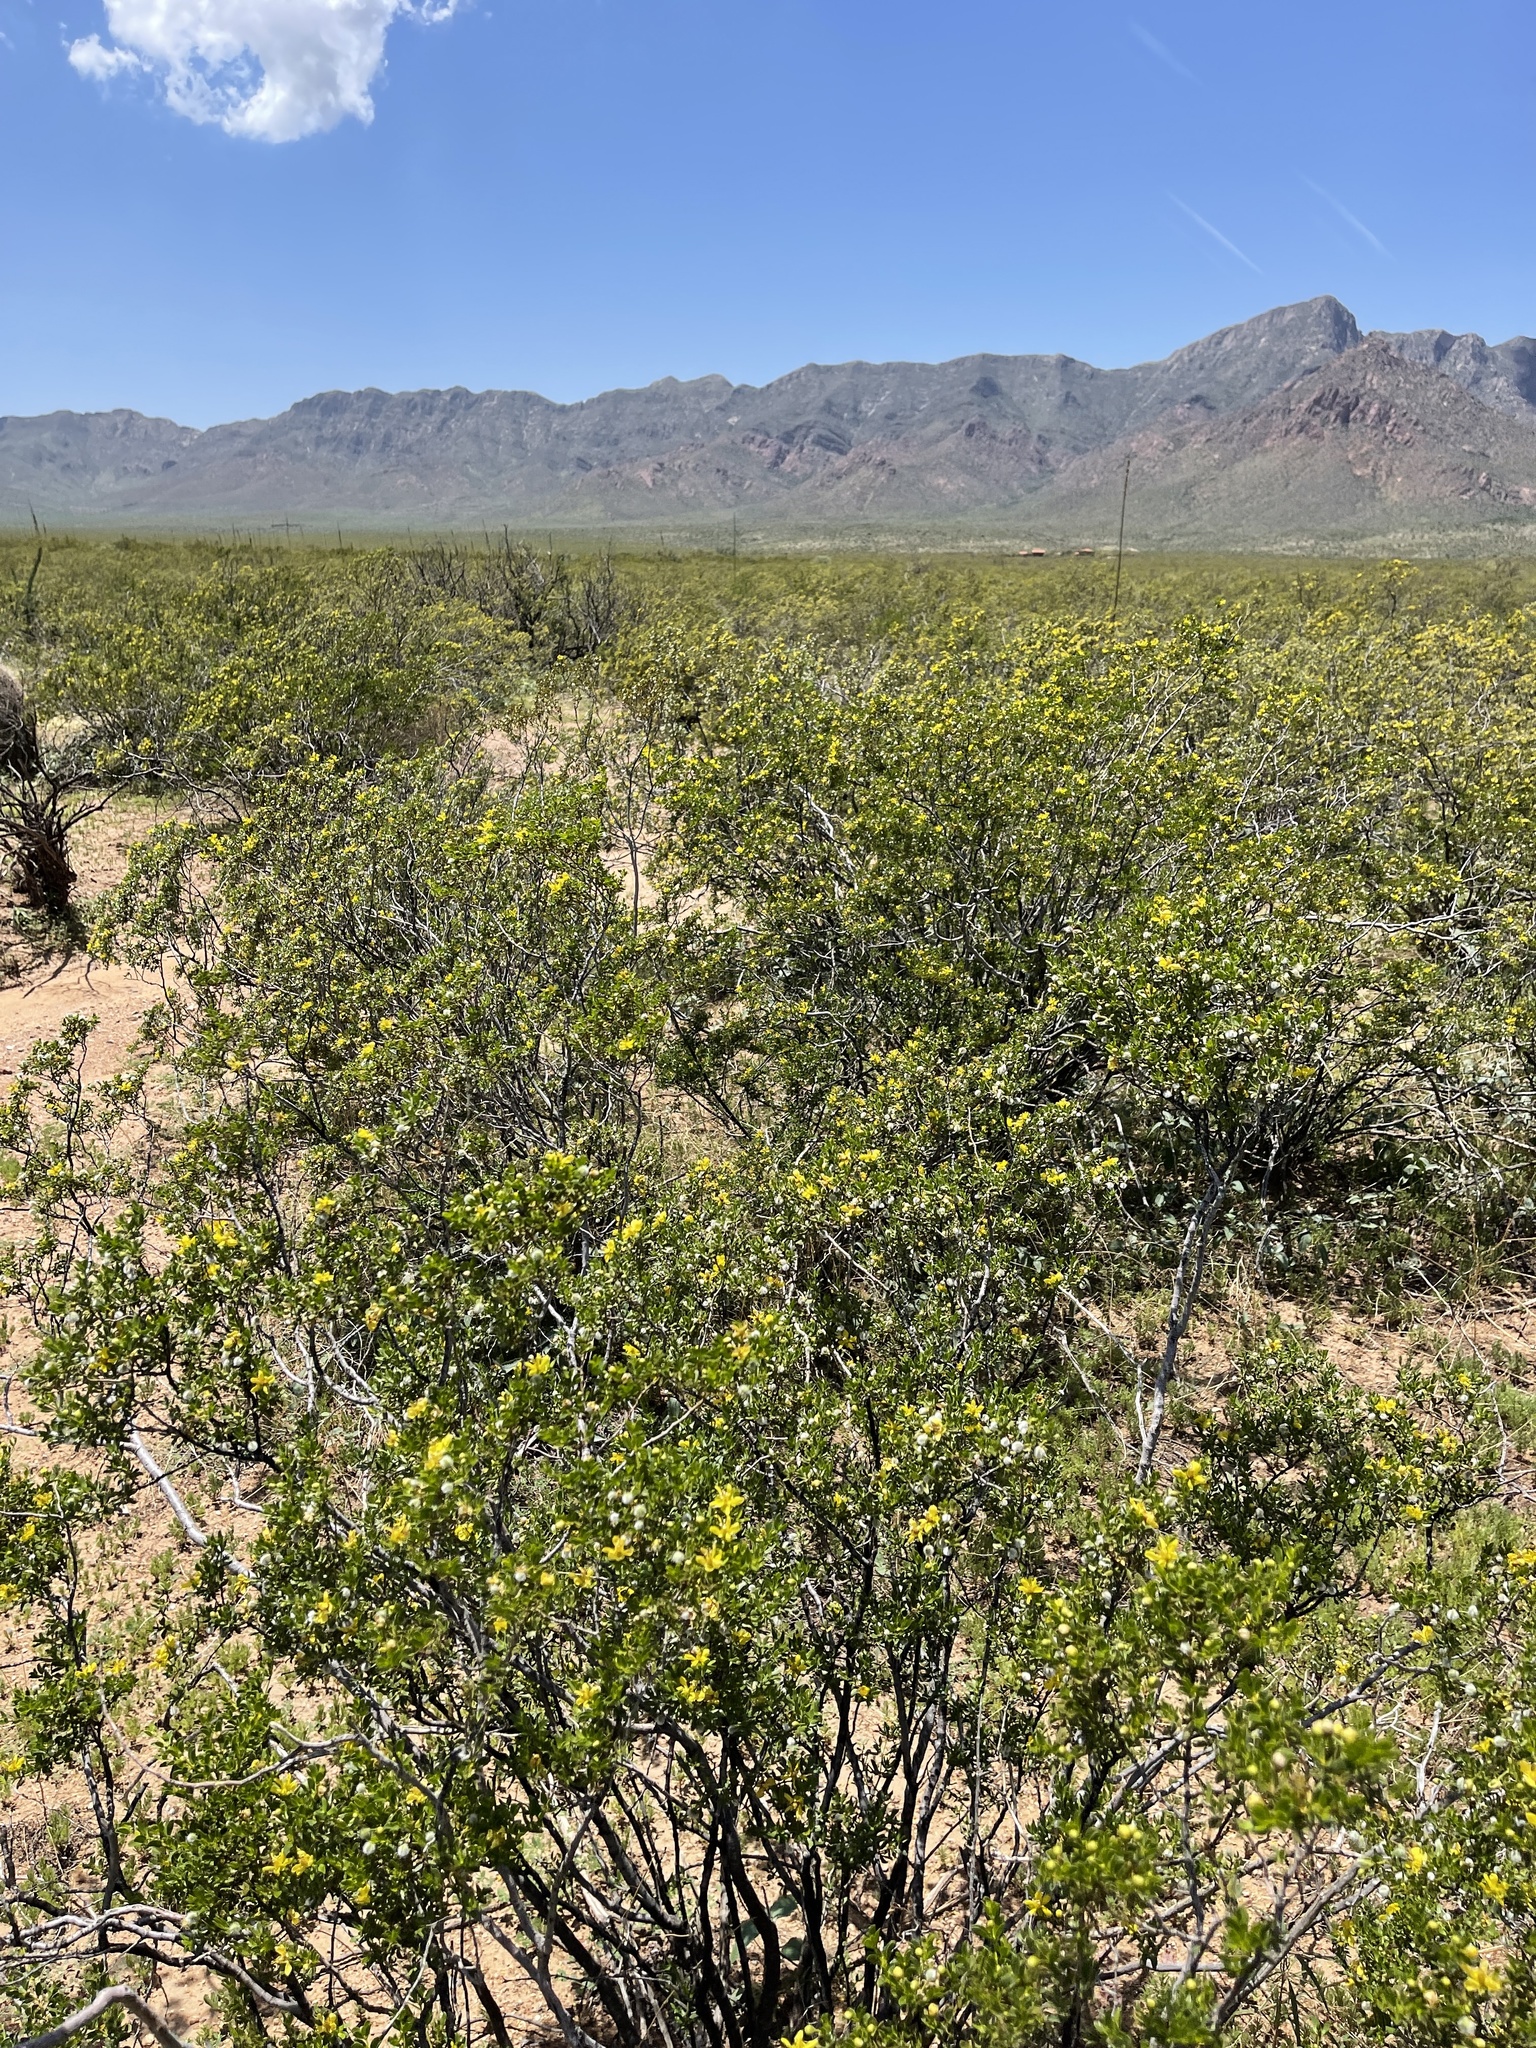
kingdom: Plantae
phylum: Tracheophyta
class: Magnoliopsida
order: Zygophyllales
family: Zygophyllaceae
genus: Larrea
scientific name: Larrea tridentata
